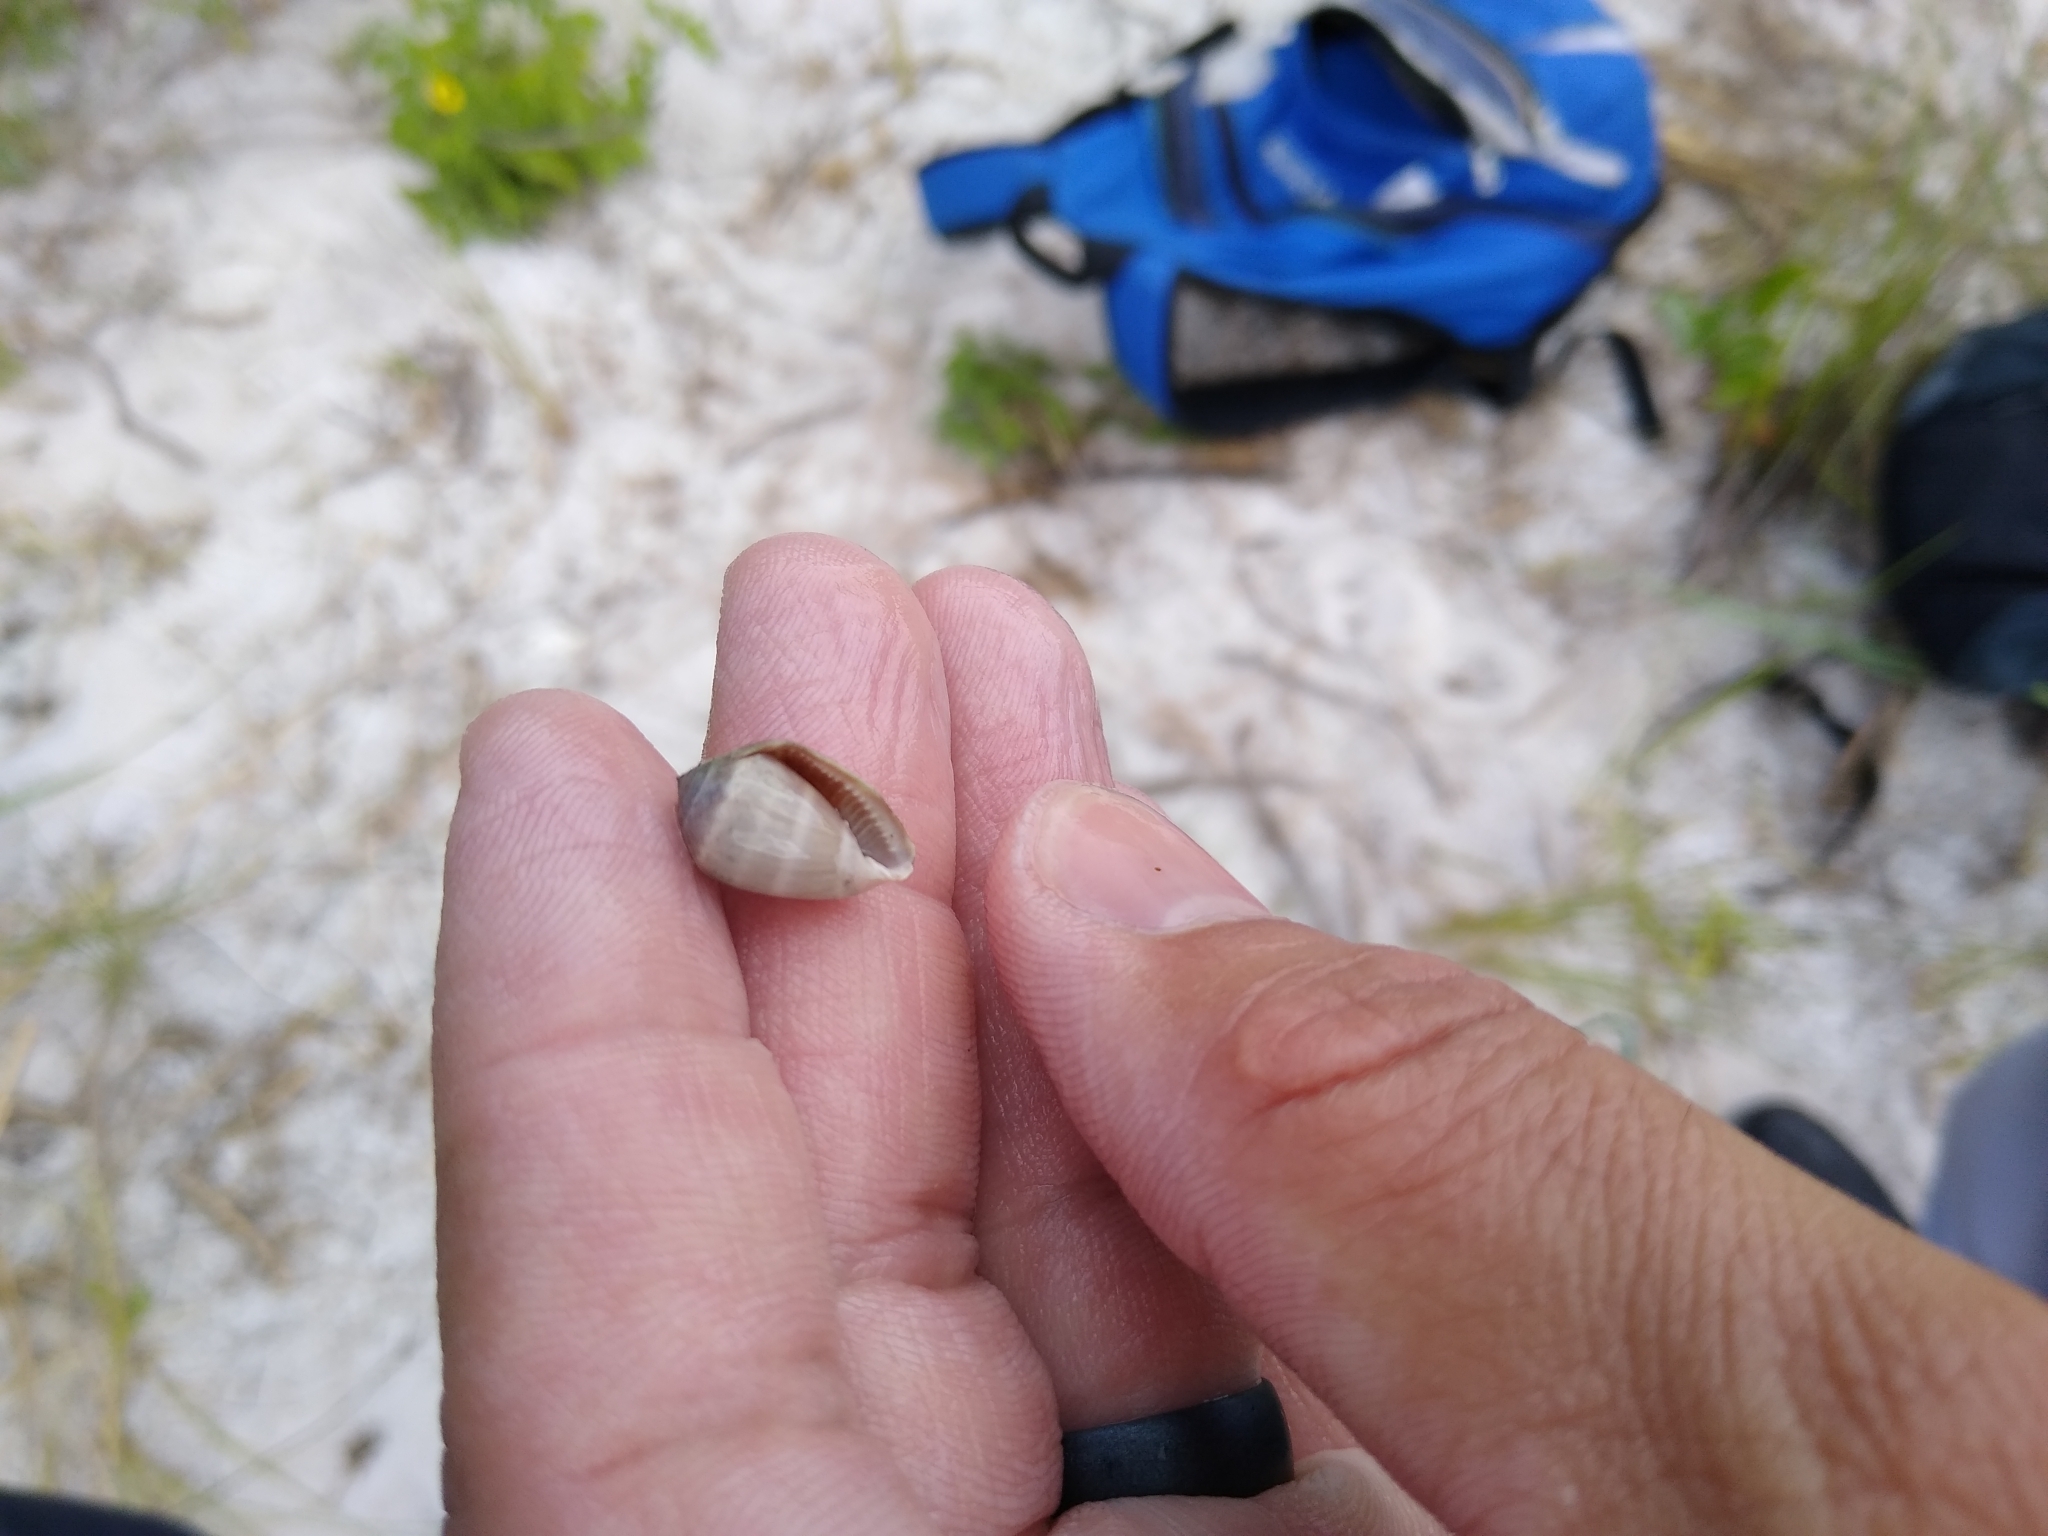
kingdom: Animalia
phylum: Mollusca
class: Gastropoda
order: Ellobiida
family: Ellobiidae
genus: Melampus
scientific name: Melampus coffea
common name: Coffee bean snail
